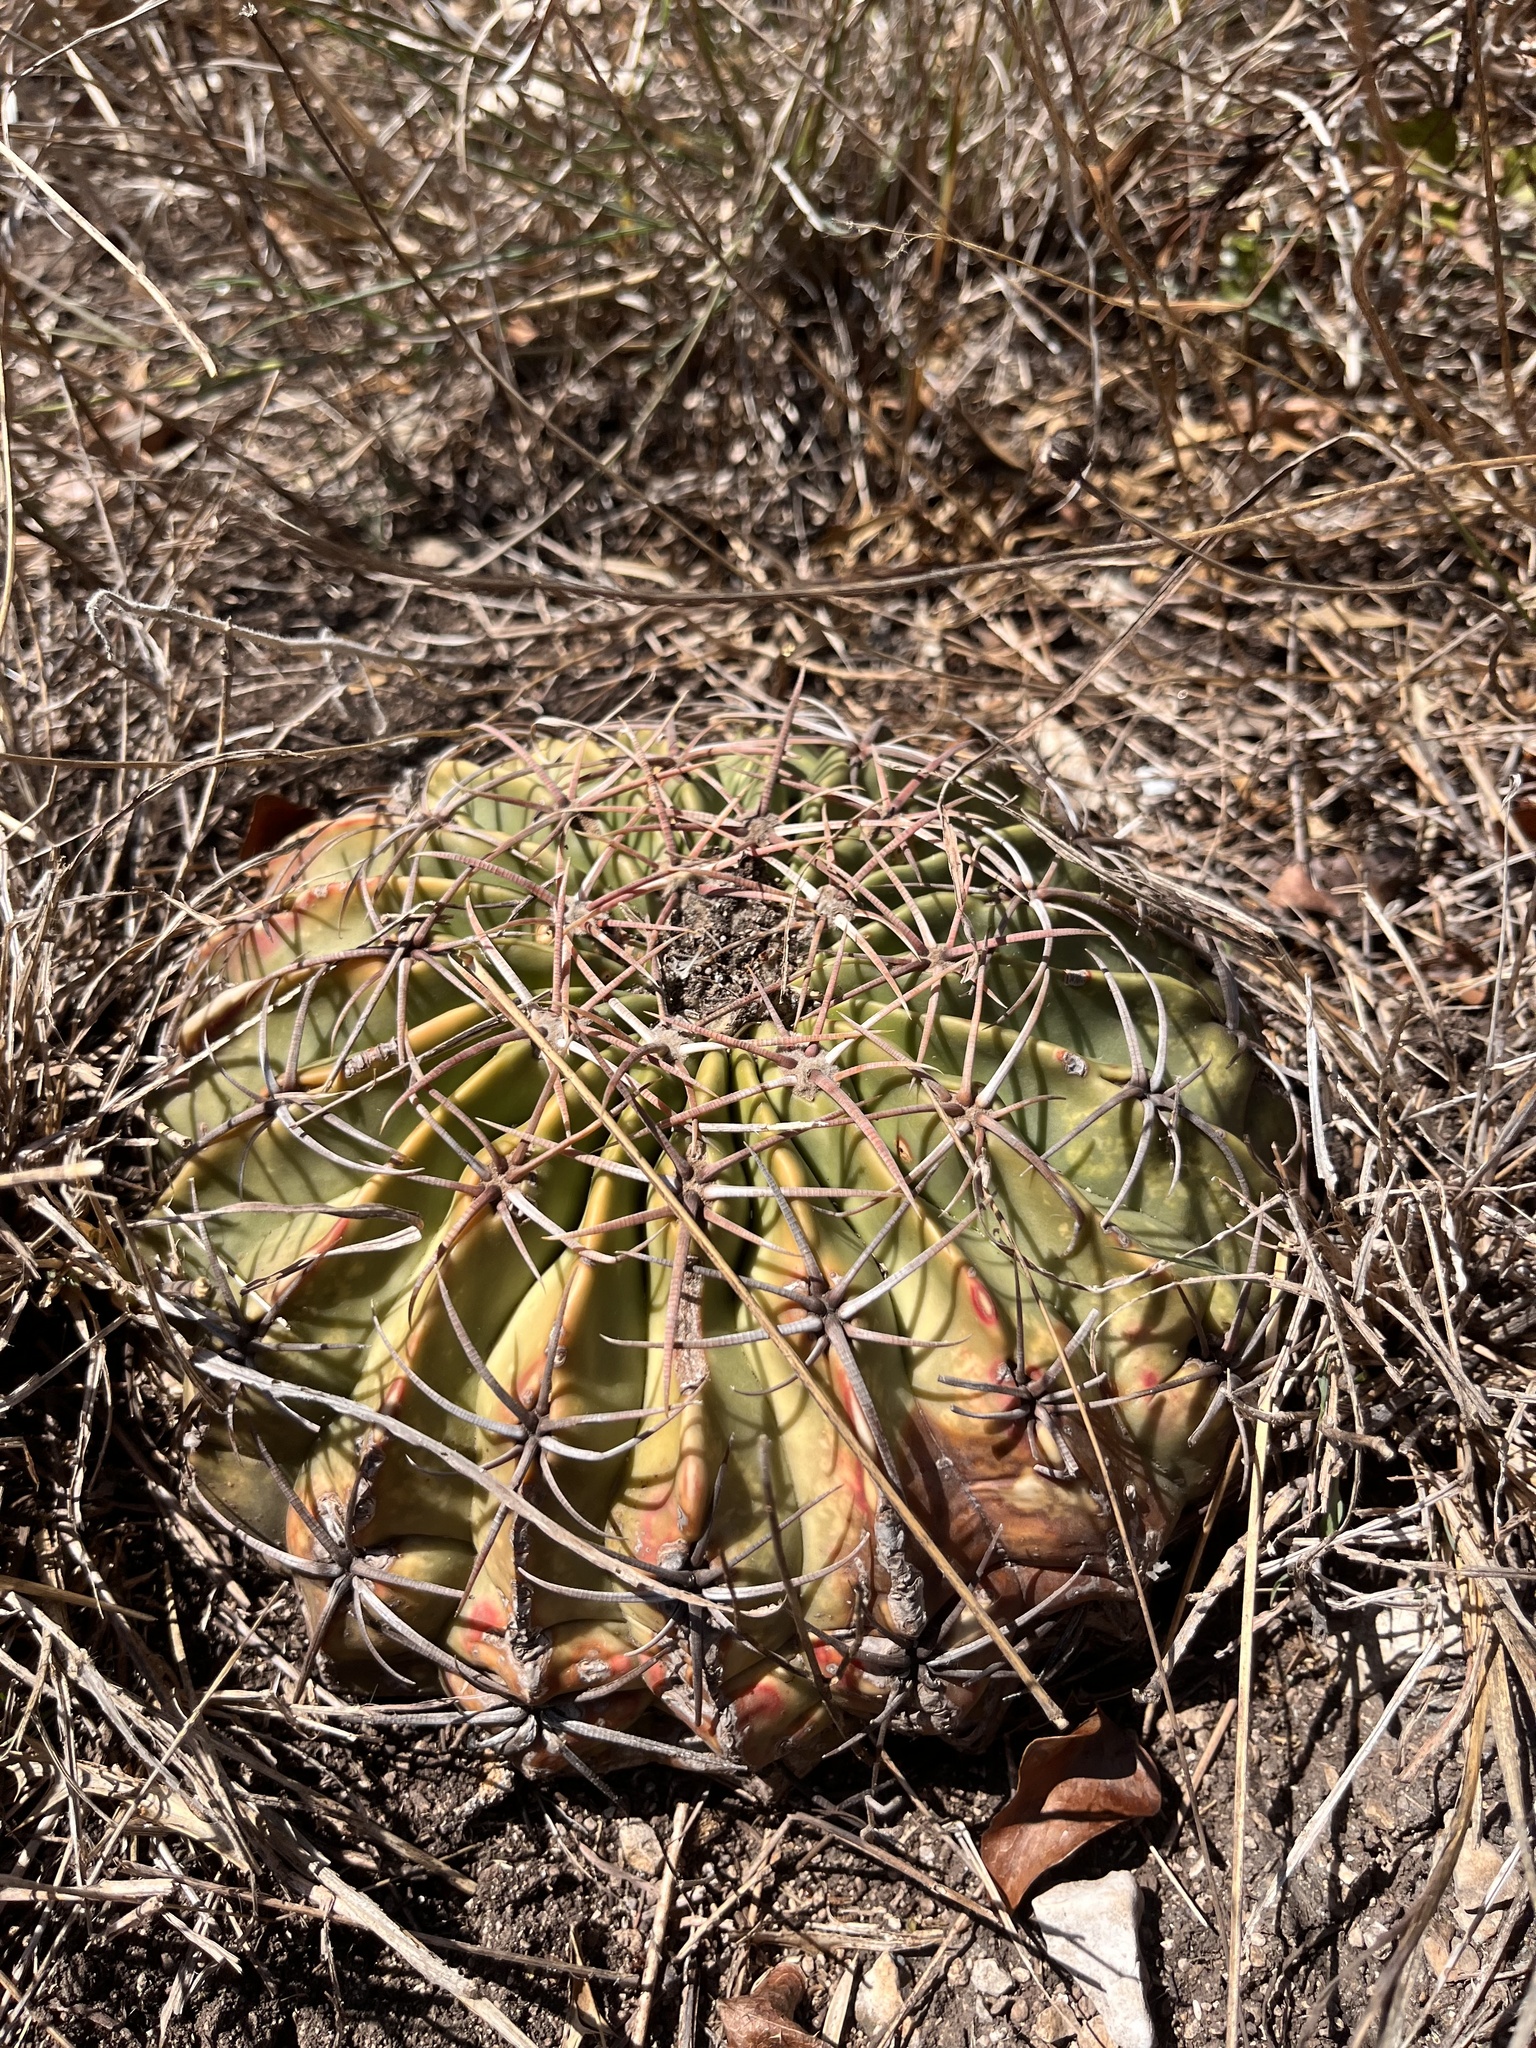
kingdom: Plantae
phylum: Tracheophyta
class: Magnoliopsida
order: Caryophyllales
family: Cactaceae
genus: Echinocactus
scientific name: Echinocactus texensis
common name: Devil's pincushion
